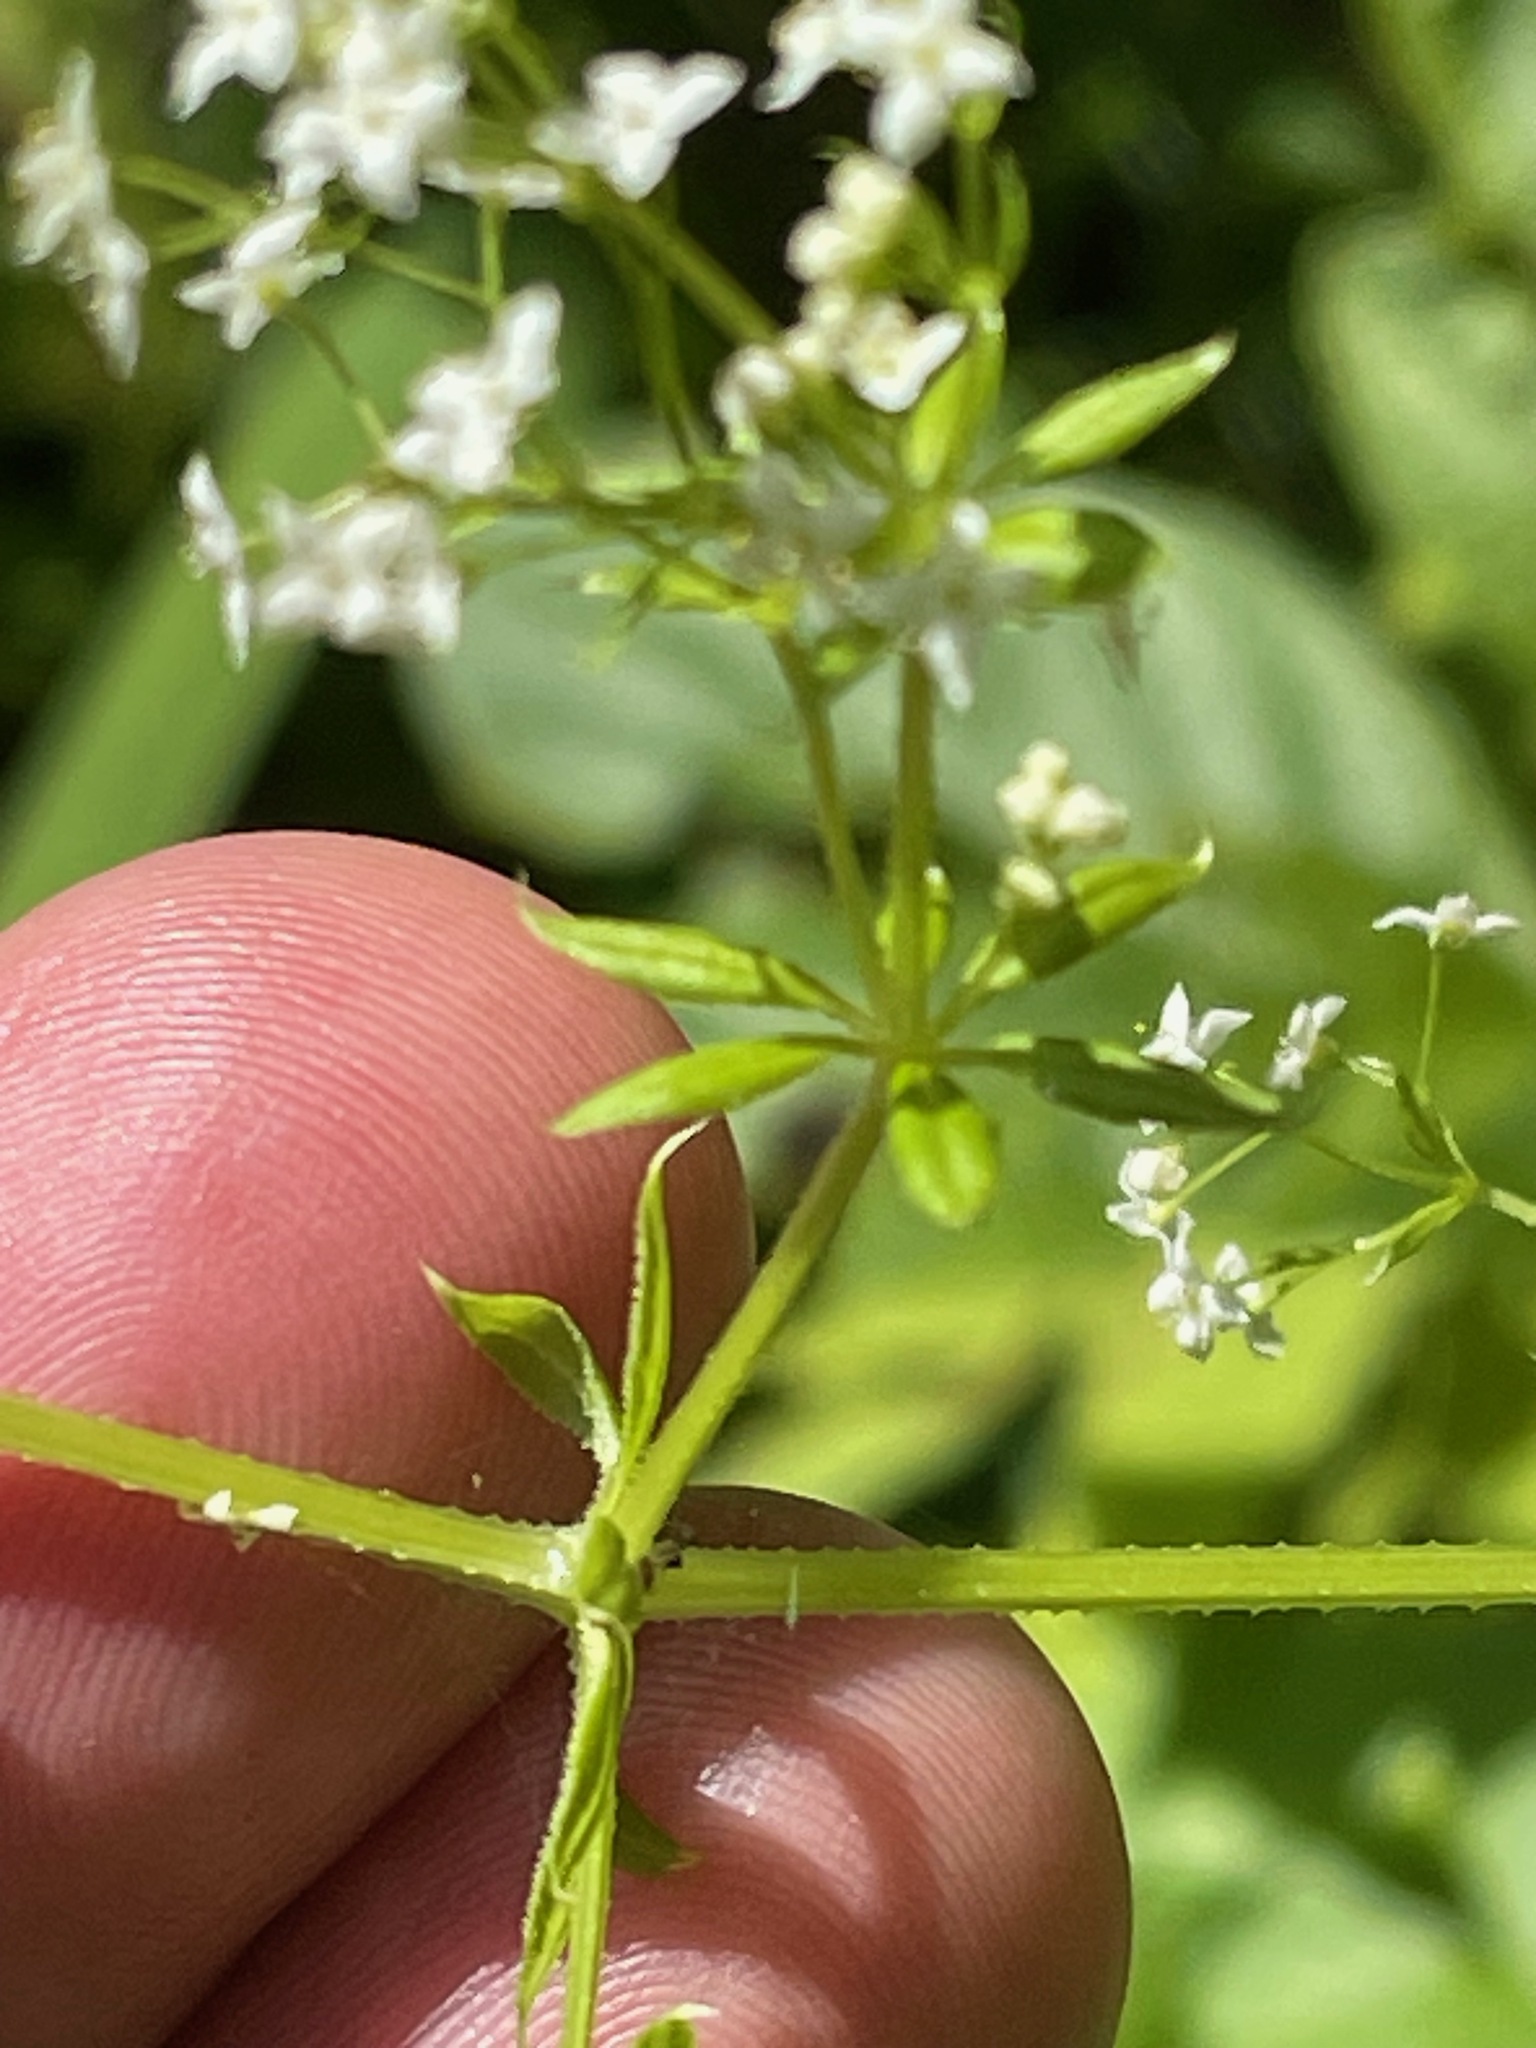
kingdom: Plantae
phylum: Tracheophyta
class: Magnoliopsida
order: Gentianales
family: Rubiaceae
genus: Galium
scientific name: Galium aparine
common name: Cleavers
